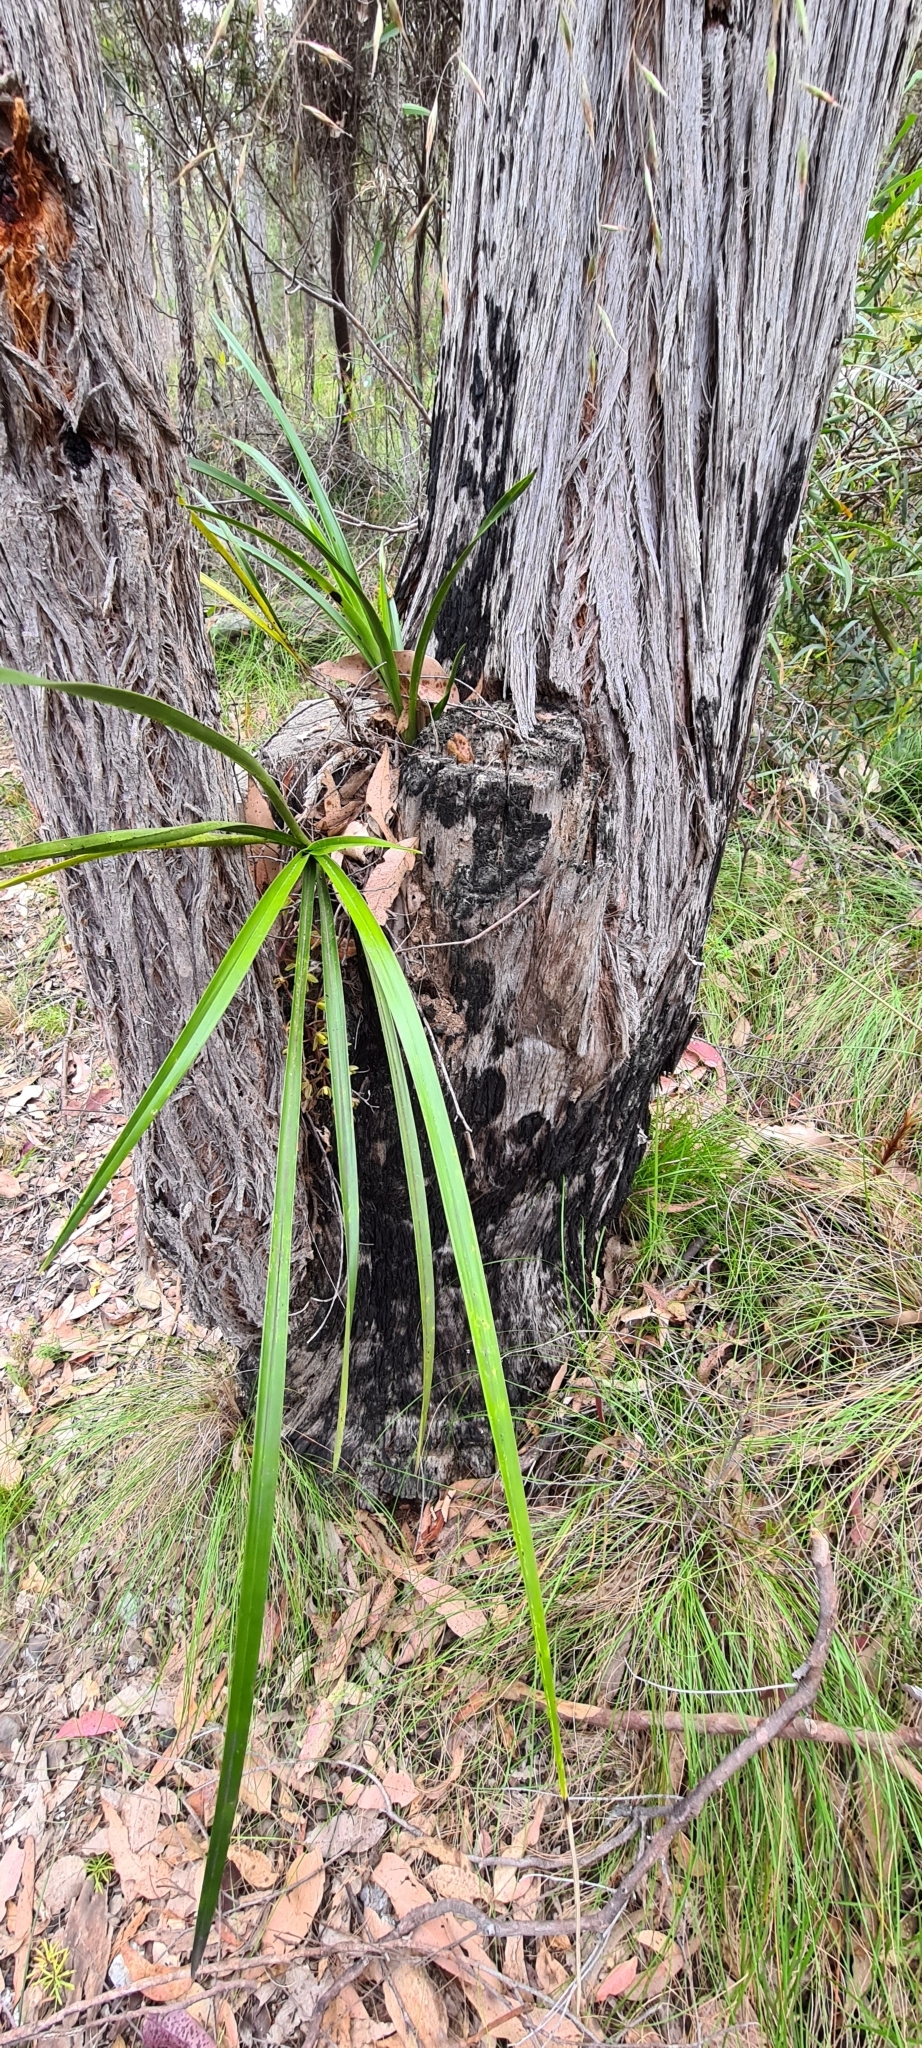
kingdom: Plantae
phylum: Tracheophyta
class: Liliopsida
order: Asparagales
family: Orchidaceae
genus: Cymbidium
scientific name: Cymbidium suave
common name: Snake orchid
